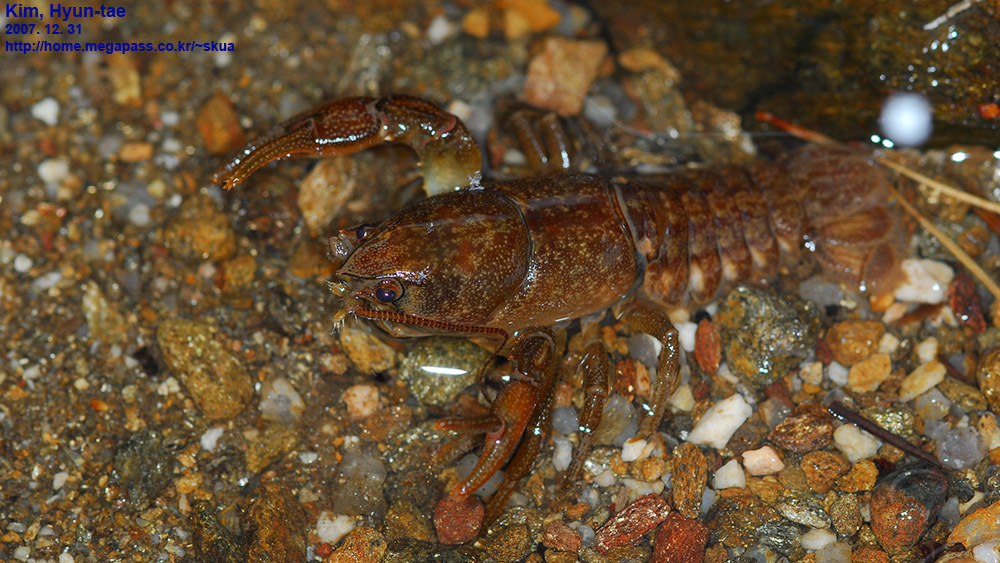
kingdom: Animalia
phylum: Arthropoda
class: Malacostraca
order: Decapoda
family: Cambaroididae
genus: Cambaroides
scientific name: Cambaroides similis
